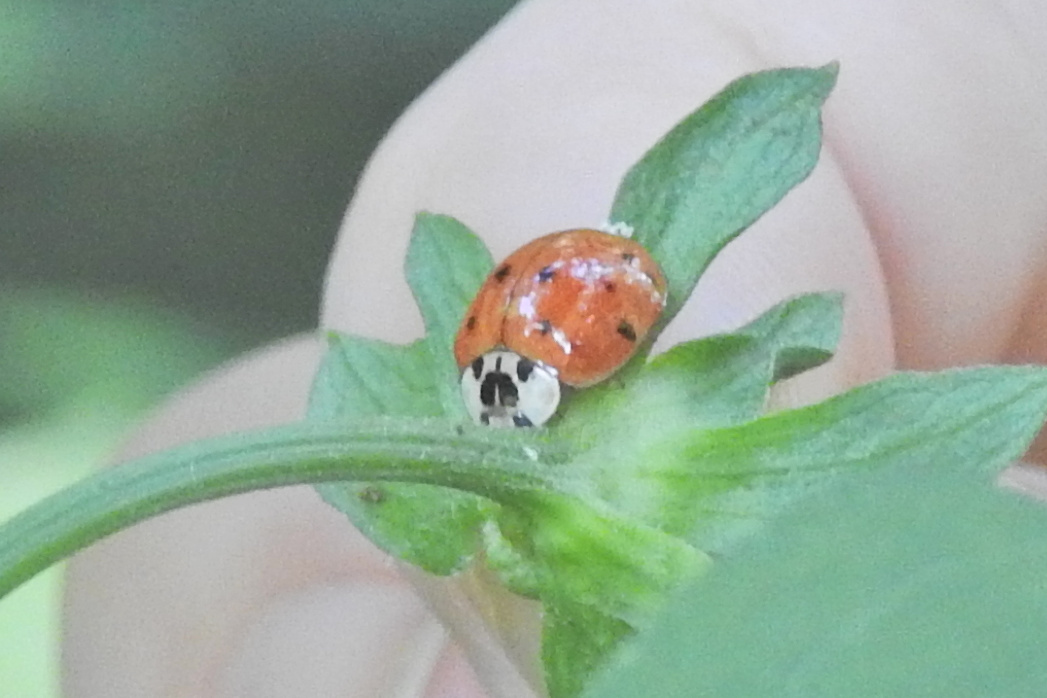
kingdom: Fungi
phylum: Ascomycota
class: Laboulbeniomycetes
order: Laboulbeniales
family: Laboulbeniaceae
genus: Hesperomyces
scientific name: Hesperomyces harmoniae
